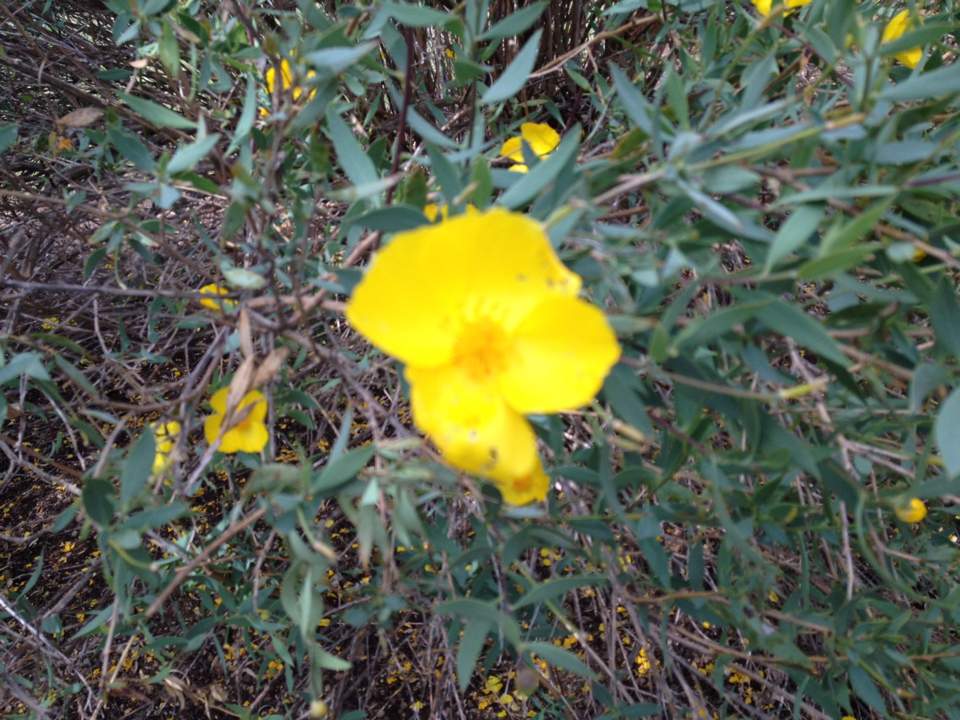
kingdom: Plantae
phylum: Tracheophyta
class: Magnoliopsida
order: Ranunculales
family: Papaveraceae
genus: Dendromecon
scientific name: Dendromecon rigida
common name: Tree poppy
